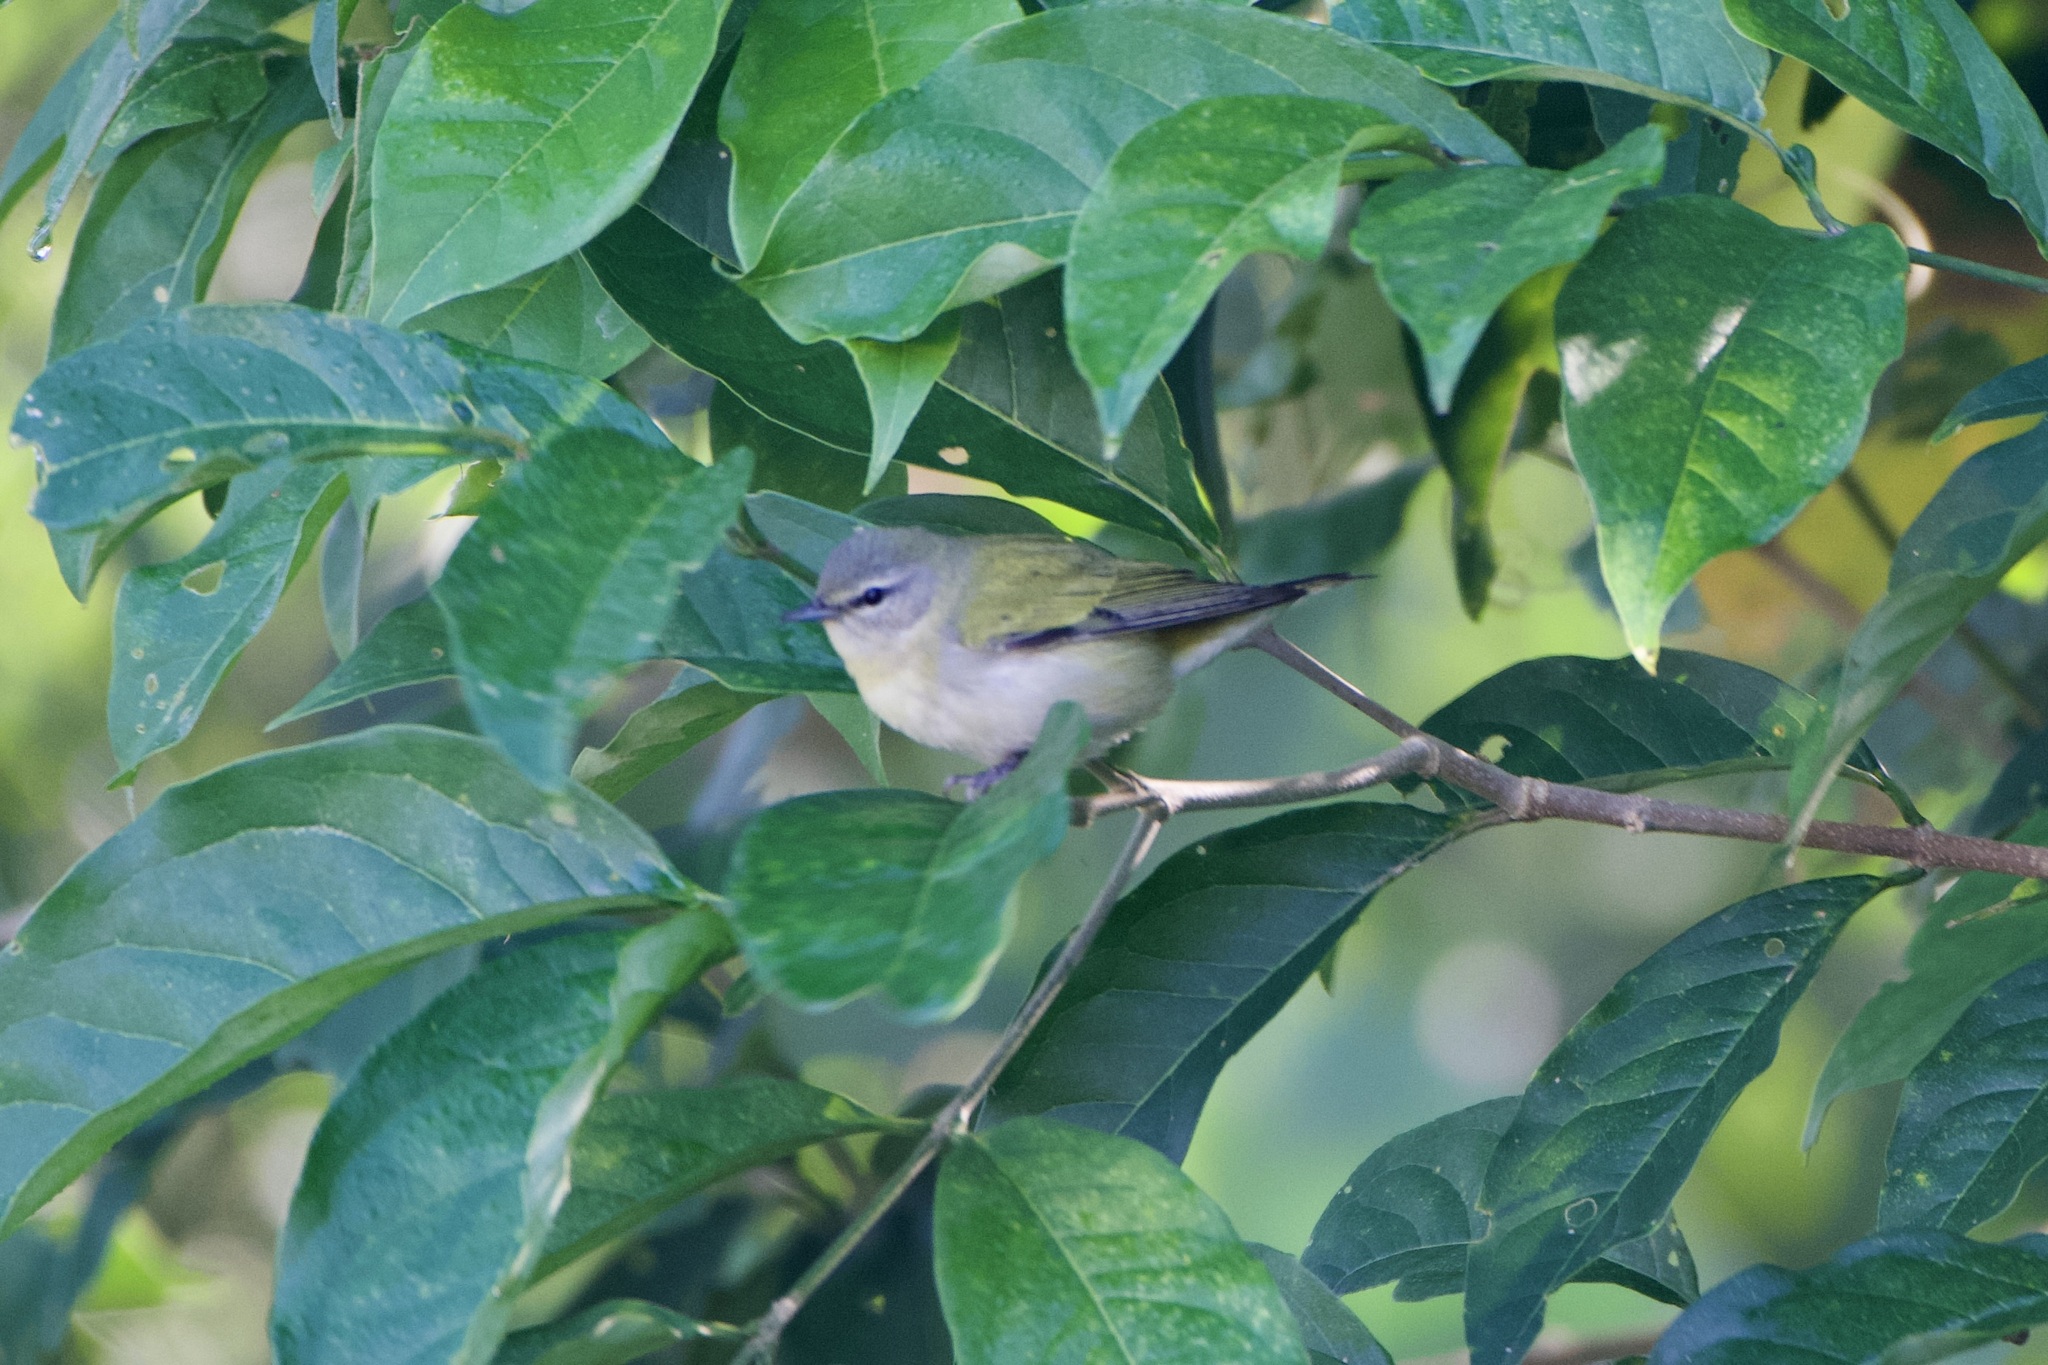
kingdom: Animalia
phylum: Chordata
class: Aves
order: Passeriformes
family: Parulidae
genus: Leiothlypis
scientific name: Leiothlypis peregrina
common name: Tennessee warbler
